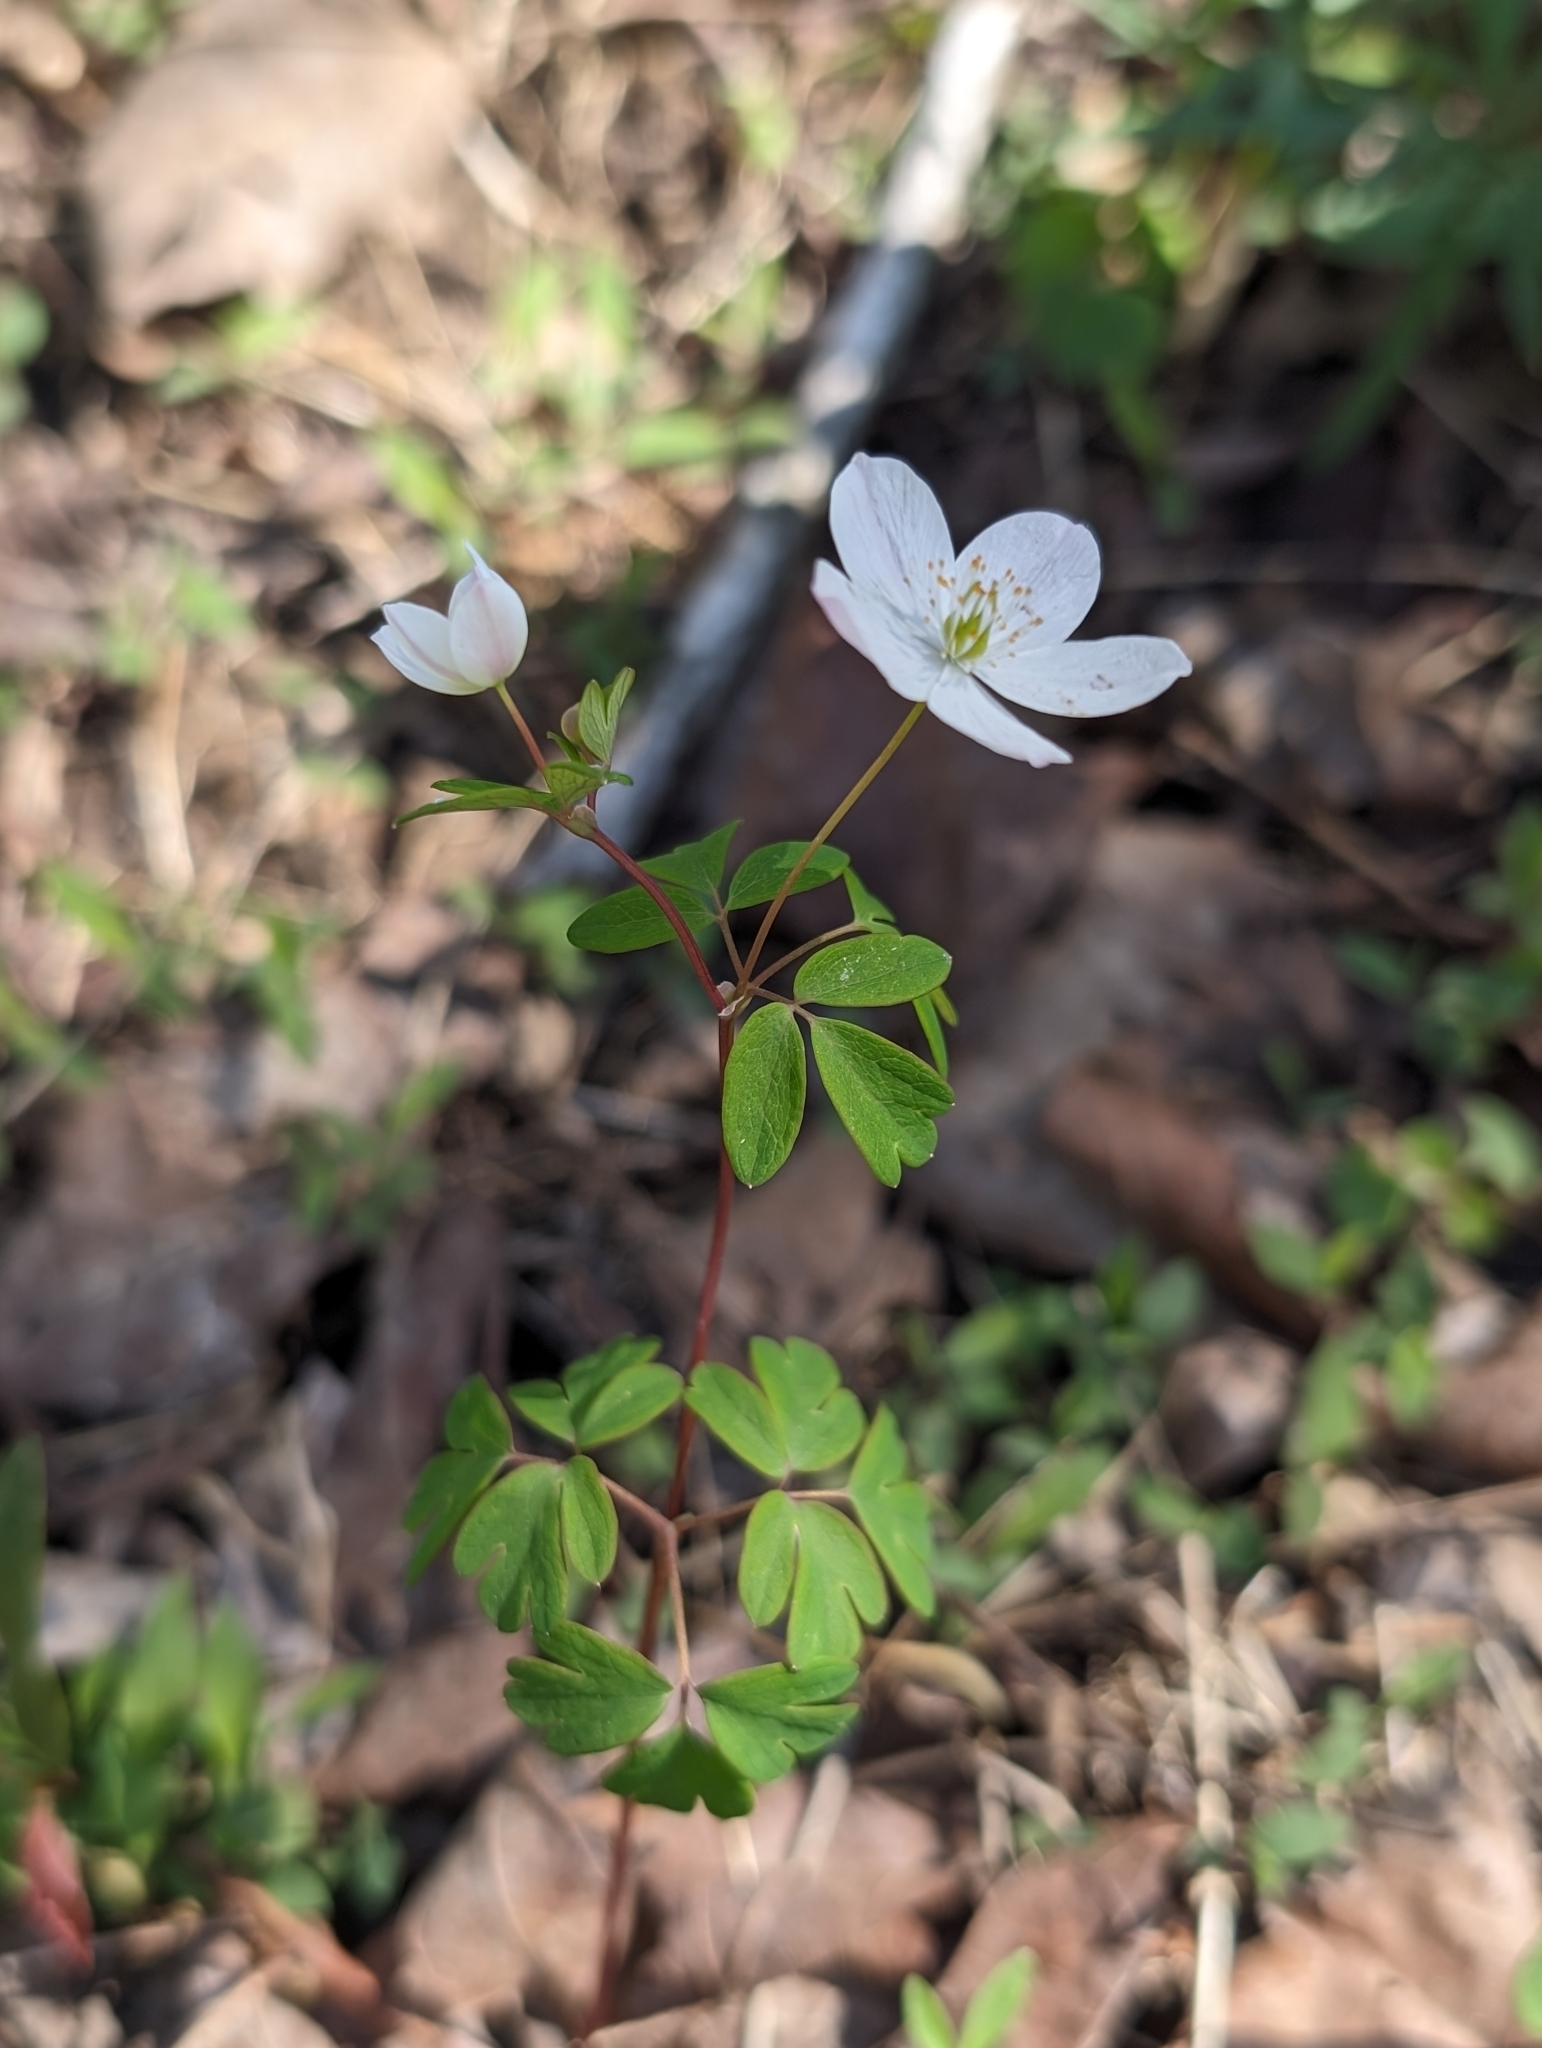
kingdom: Plantae
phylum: Tracheophyta
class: Magnoliopsida
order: Ranunculales
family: Ranunculaceae
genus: Enemion
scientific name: Enemion biternatum
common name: Eastern false rue-anemone
